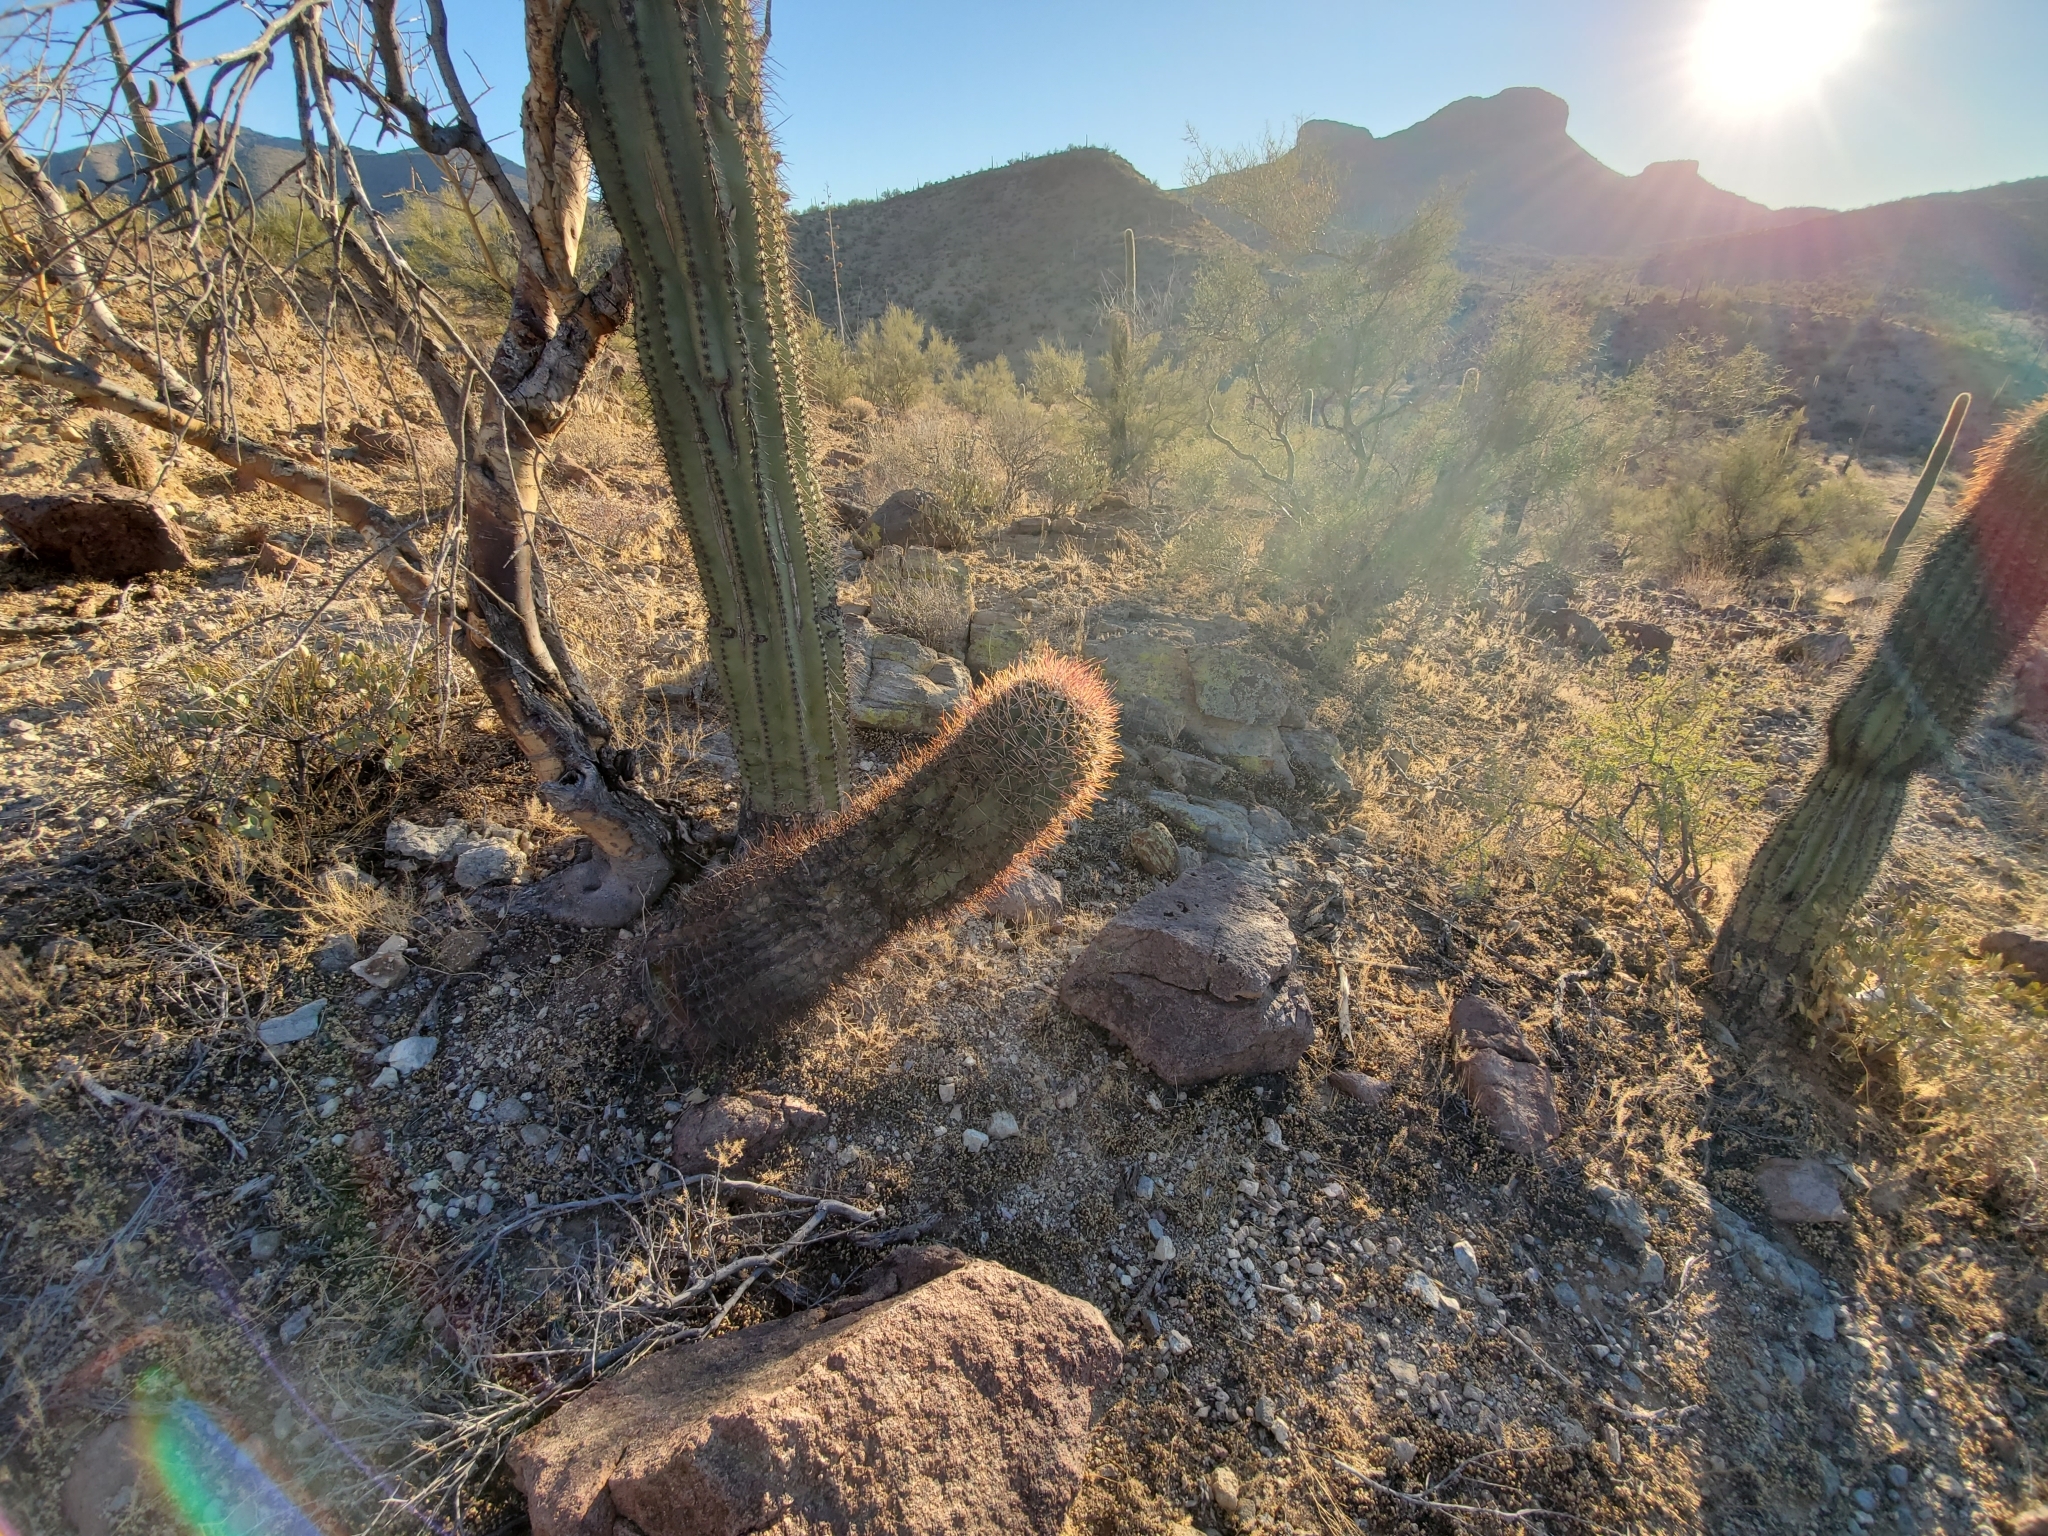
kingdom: Plantae
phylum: Tracheophyta
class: Magnoliopsida
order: Caryophyllales
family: Cactaceae
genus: Ferocactus
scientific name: Ferocactus cylindraceus
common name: California barrel cactus
